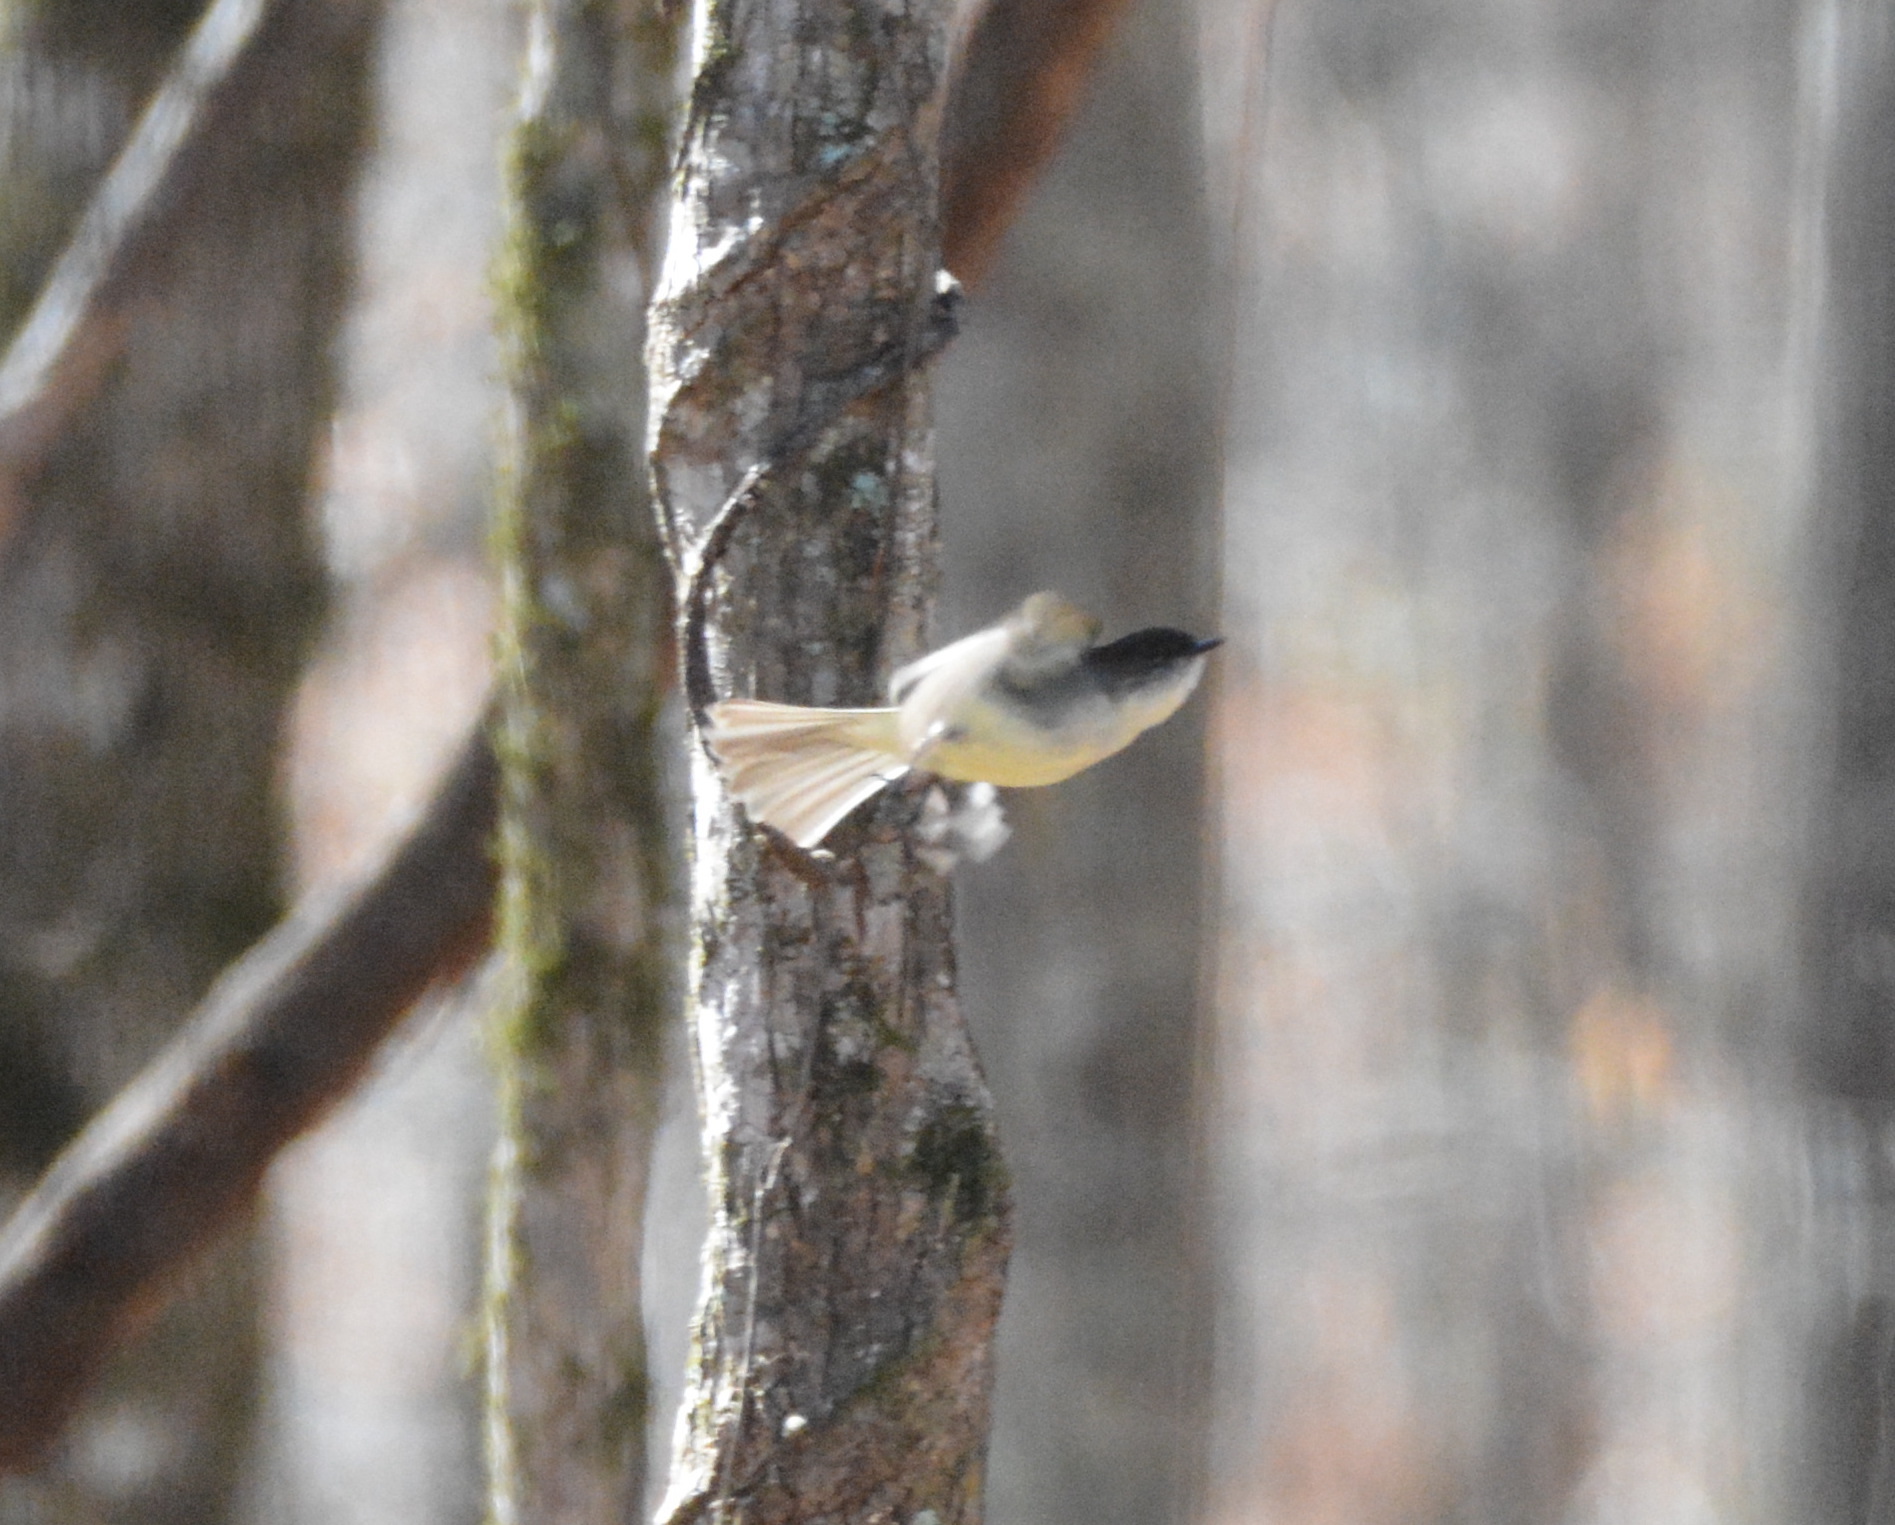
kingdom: Animalia
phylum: Chordata
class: Aves
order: Passeriformes
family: Tyrannidae
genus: Sayornis
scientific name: Sayornis phoebe
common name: Eastern phoebe
